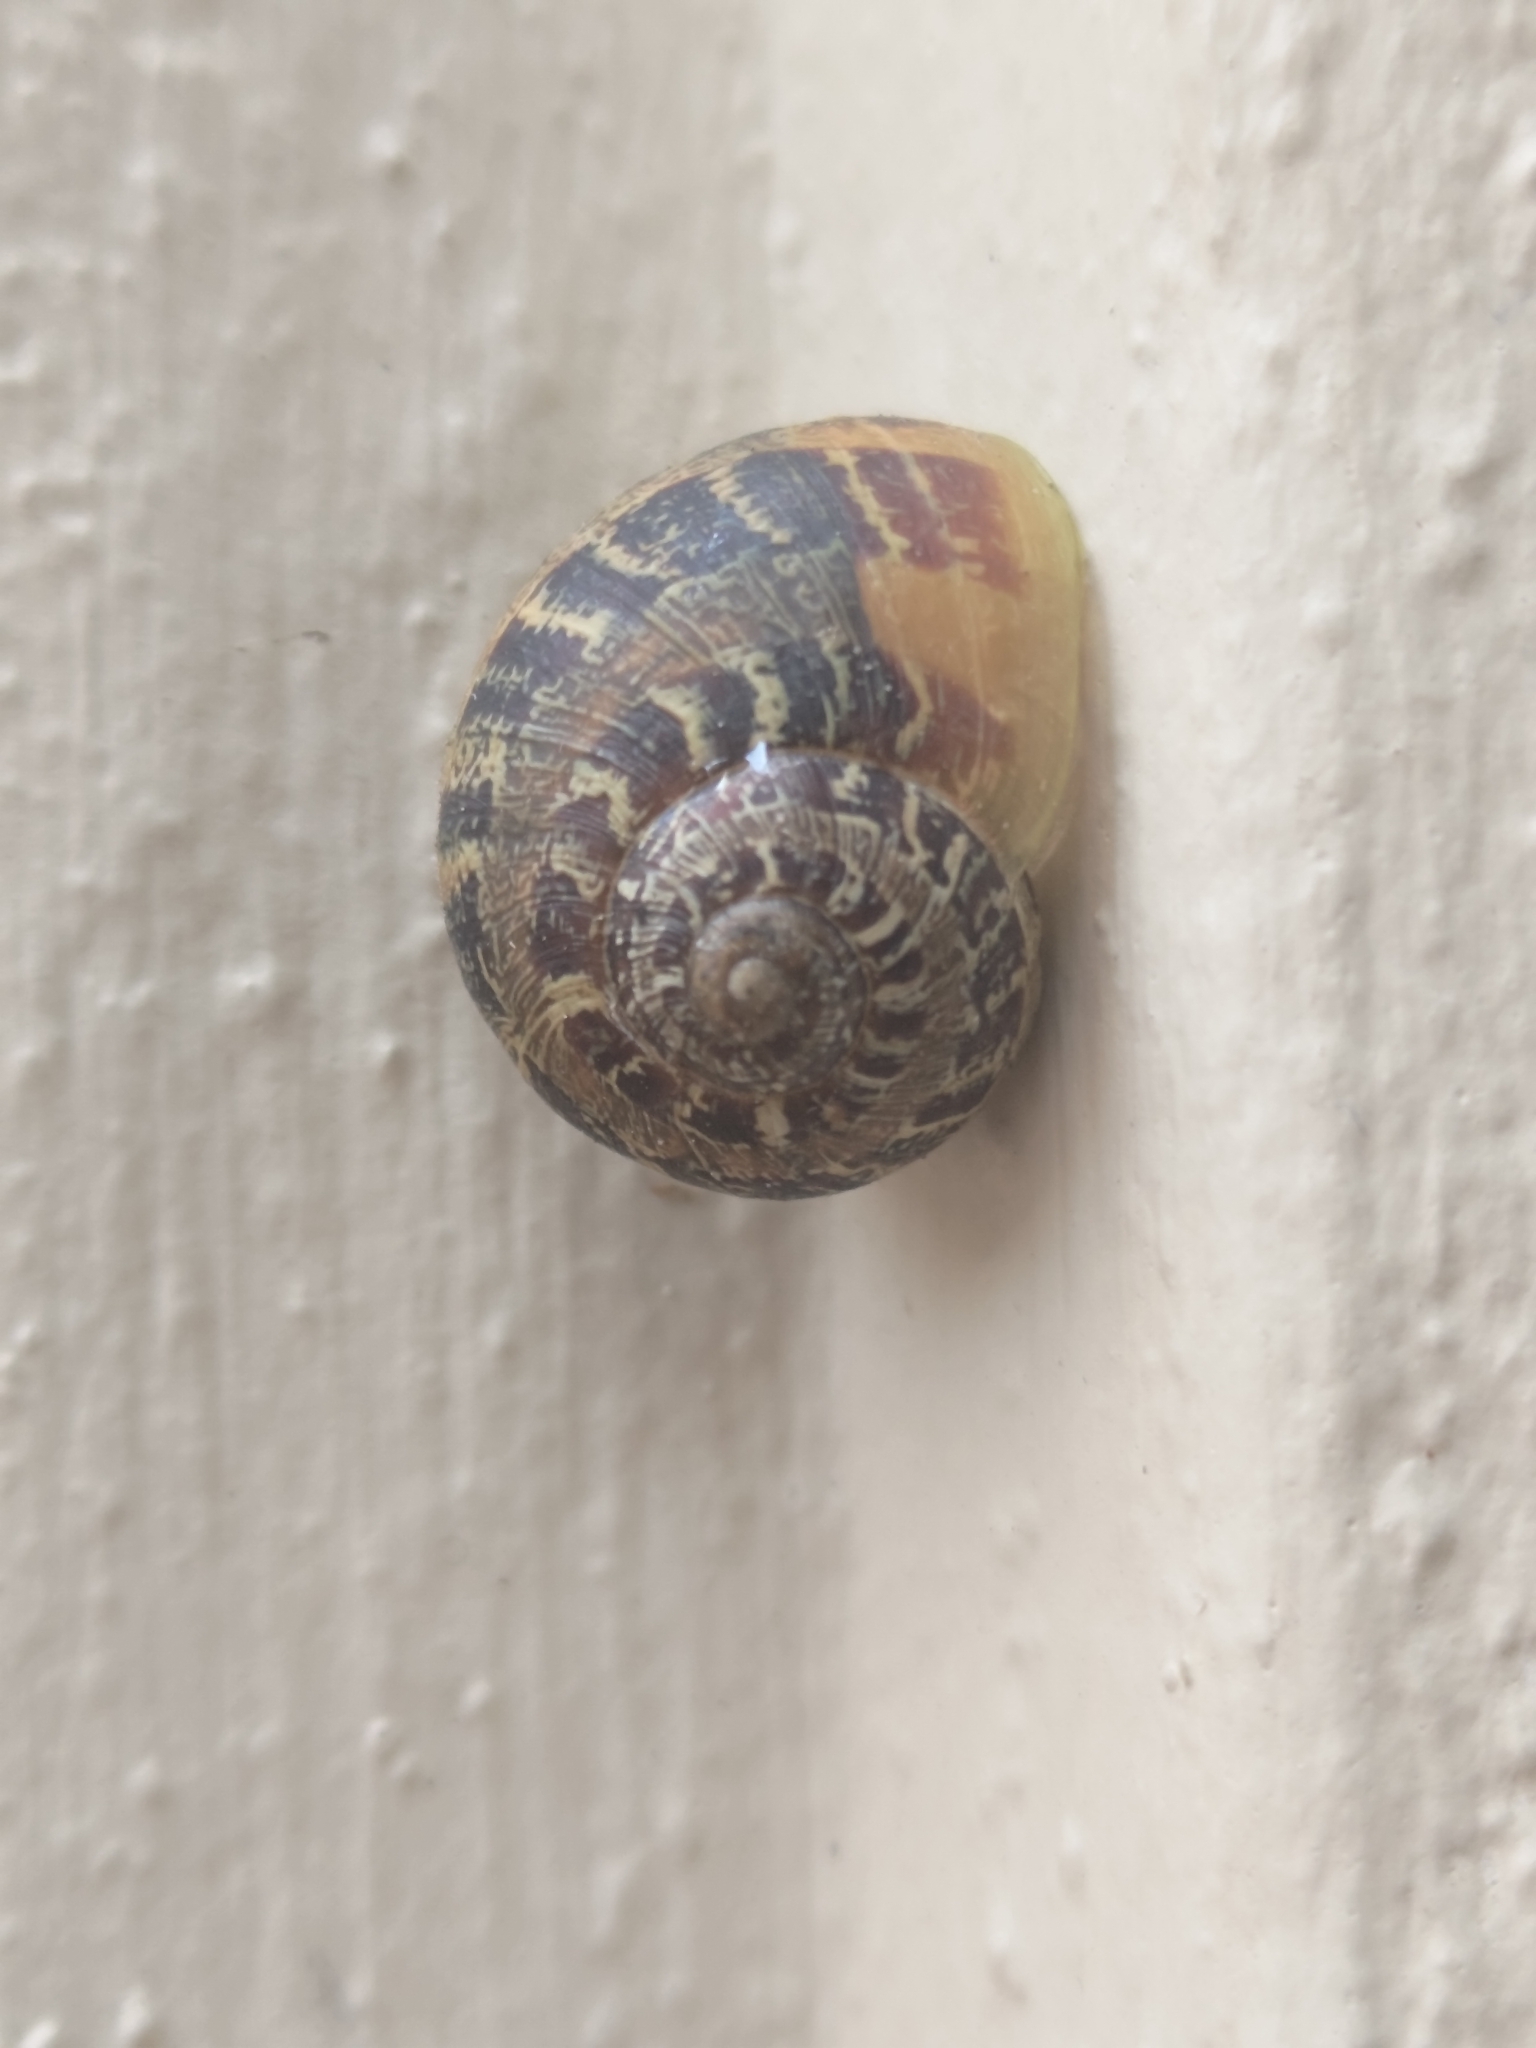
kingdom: Animalia
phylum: Mollusca
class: Gastropoda
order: Stylommatophora
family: Helicidae
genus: Cornu
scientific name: Cornu aspersum
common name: Brown garden snail
